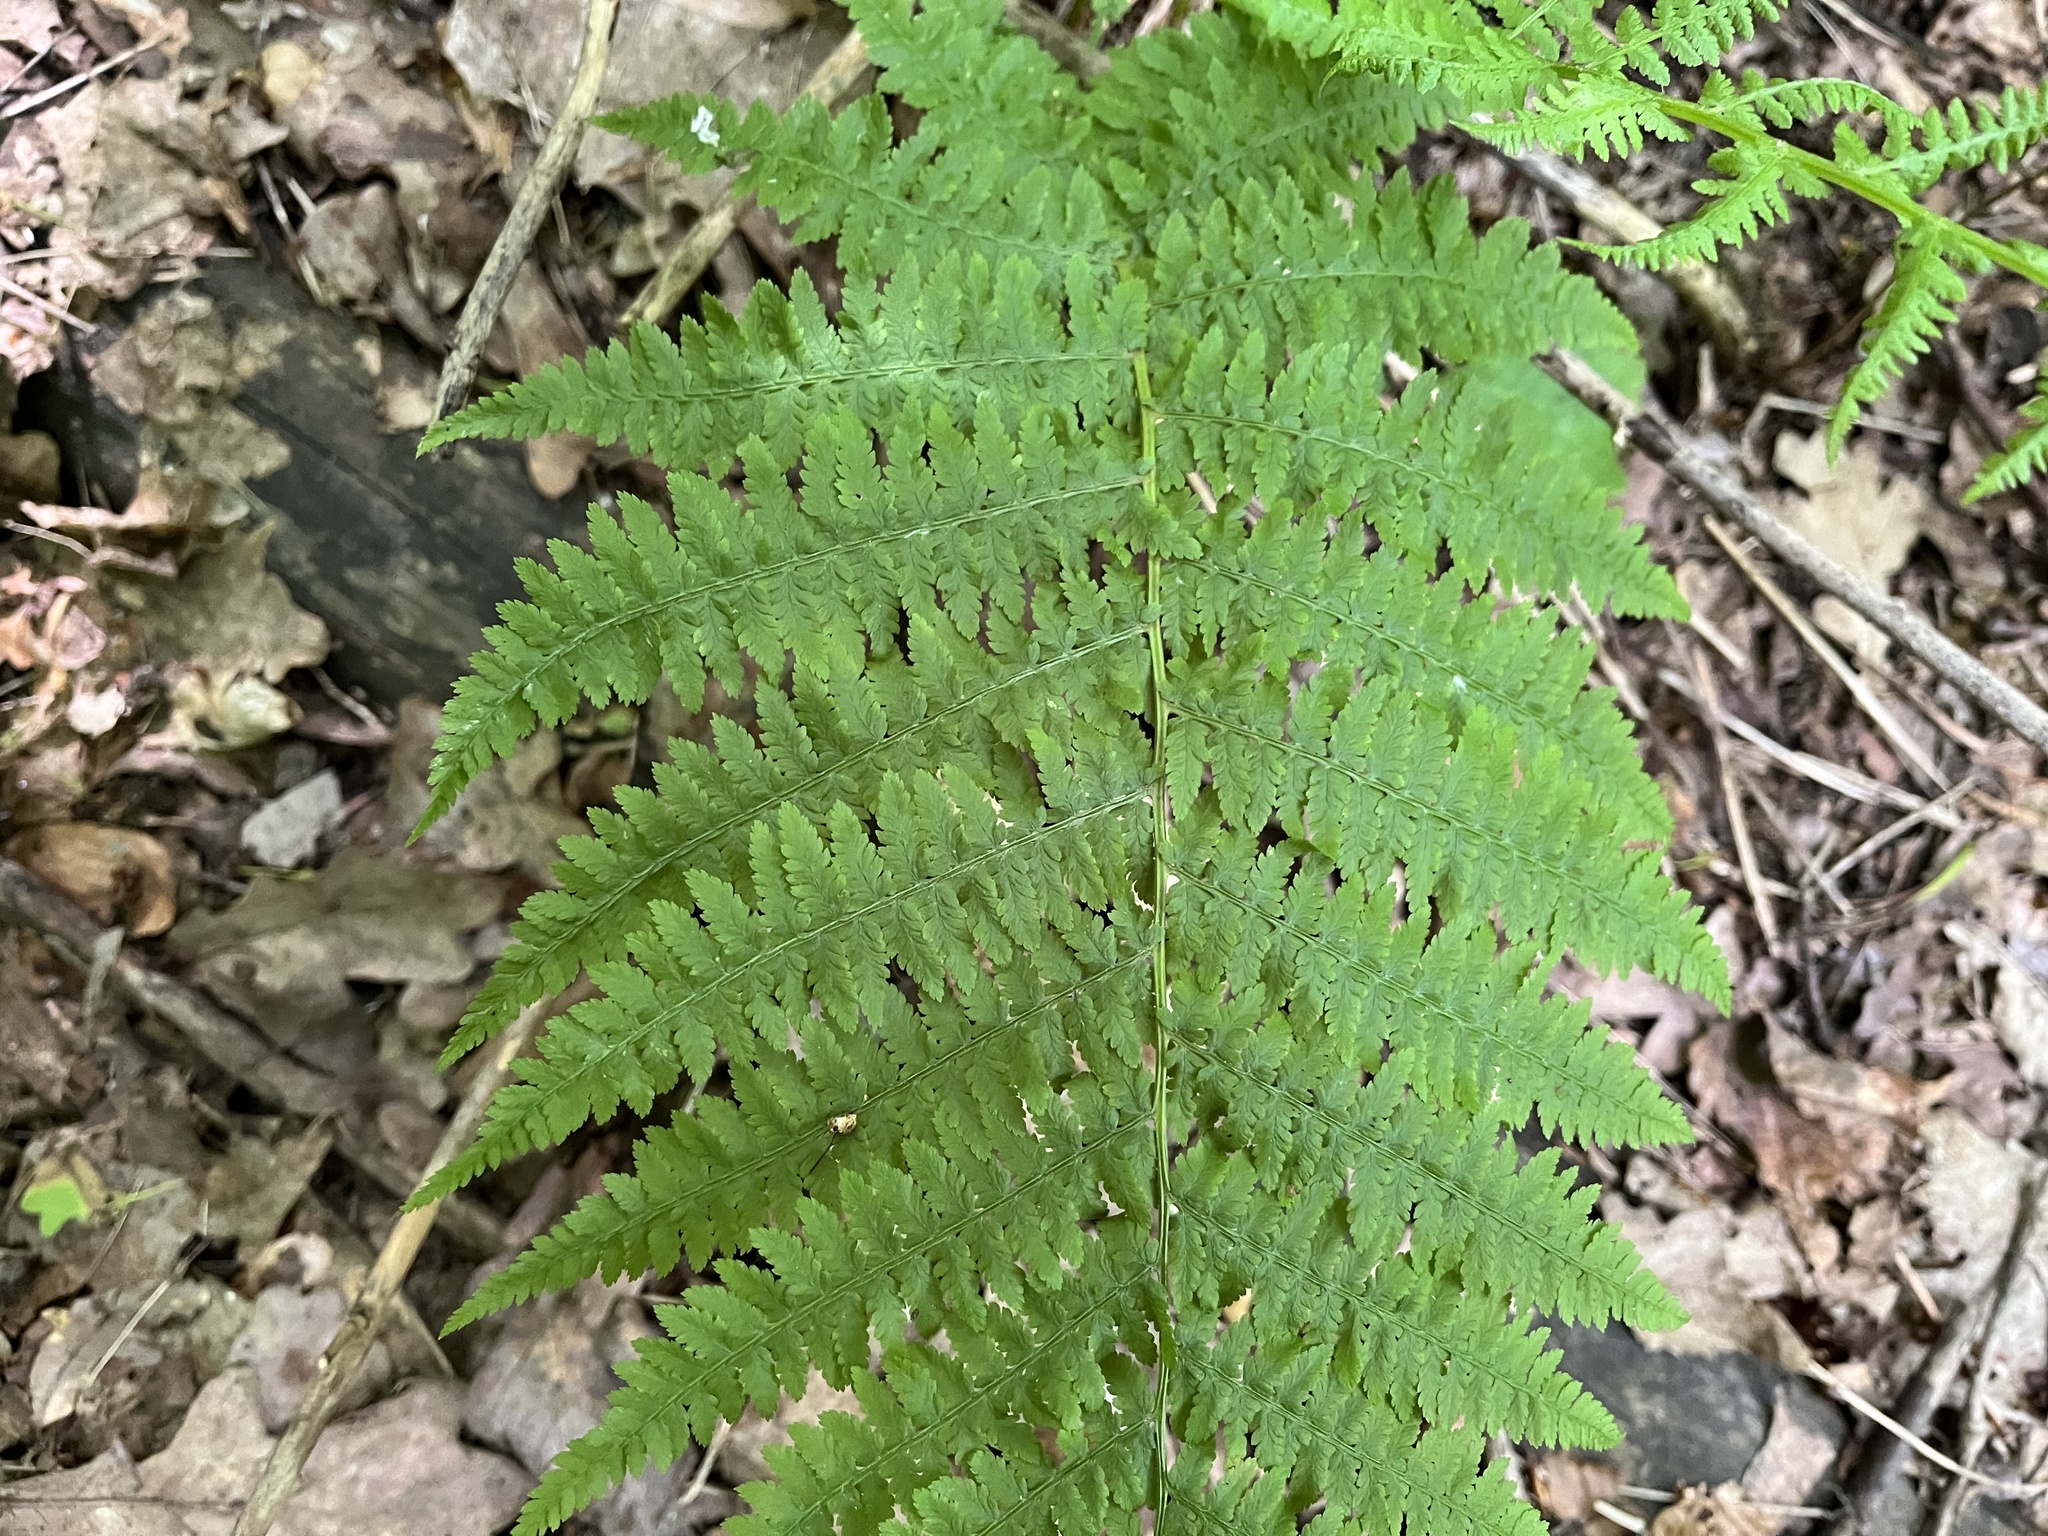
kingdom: Plantae
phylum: Tracheophyta
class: Polypodiopsida
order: Polypodiales
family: Athyriaceae
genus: Athyrium
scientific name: Athyrium filix-femina
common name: Lady fern
